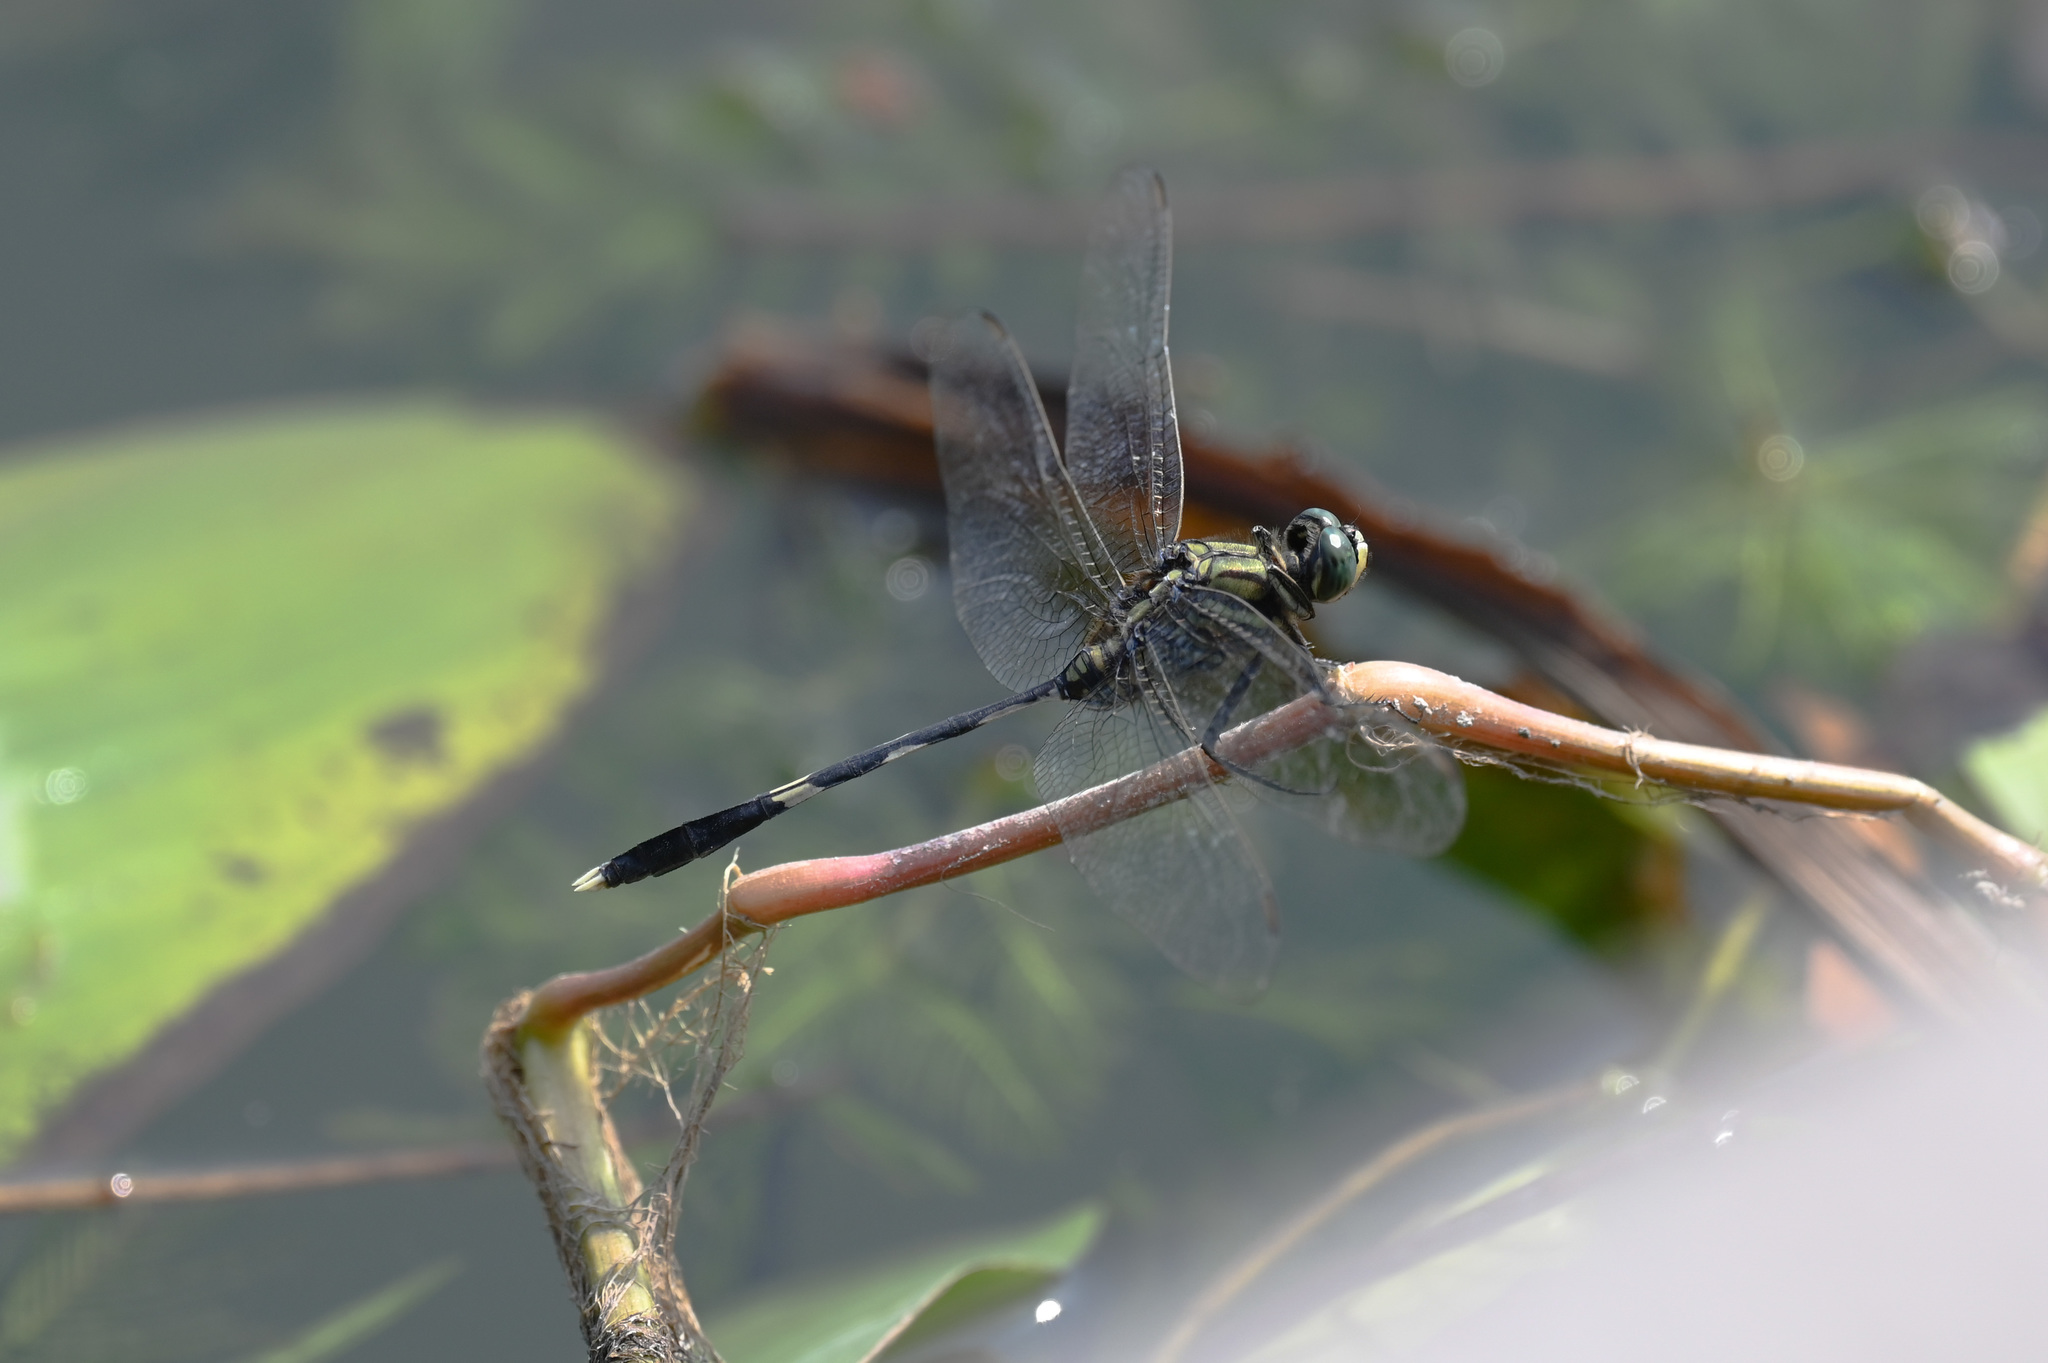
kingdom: Animalia
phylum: Arthropoda
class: Insecta
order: Odonata
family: Libellulidae
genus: Orthetrum
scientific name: Orthetrum sabina
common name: Slender skimmer
